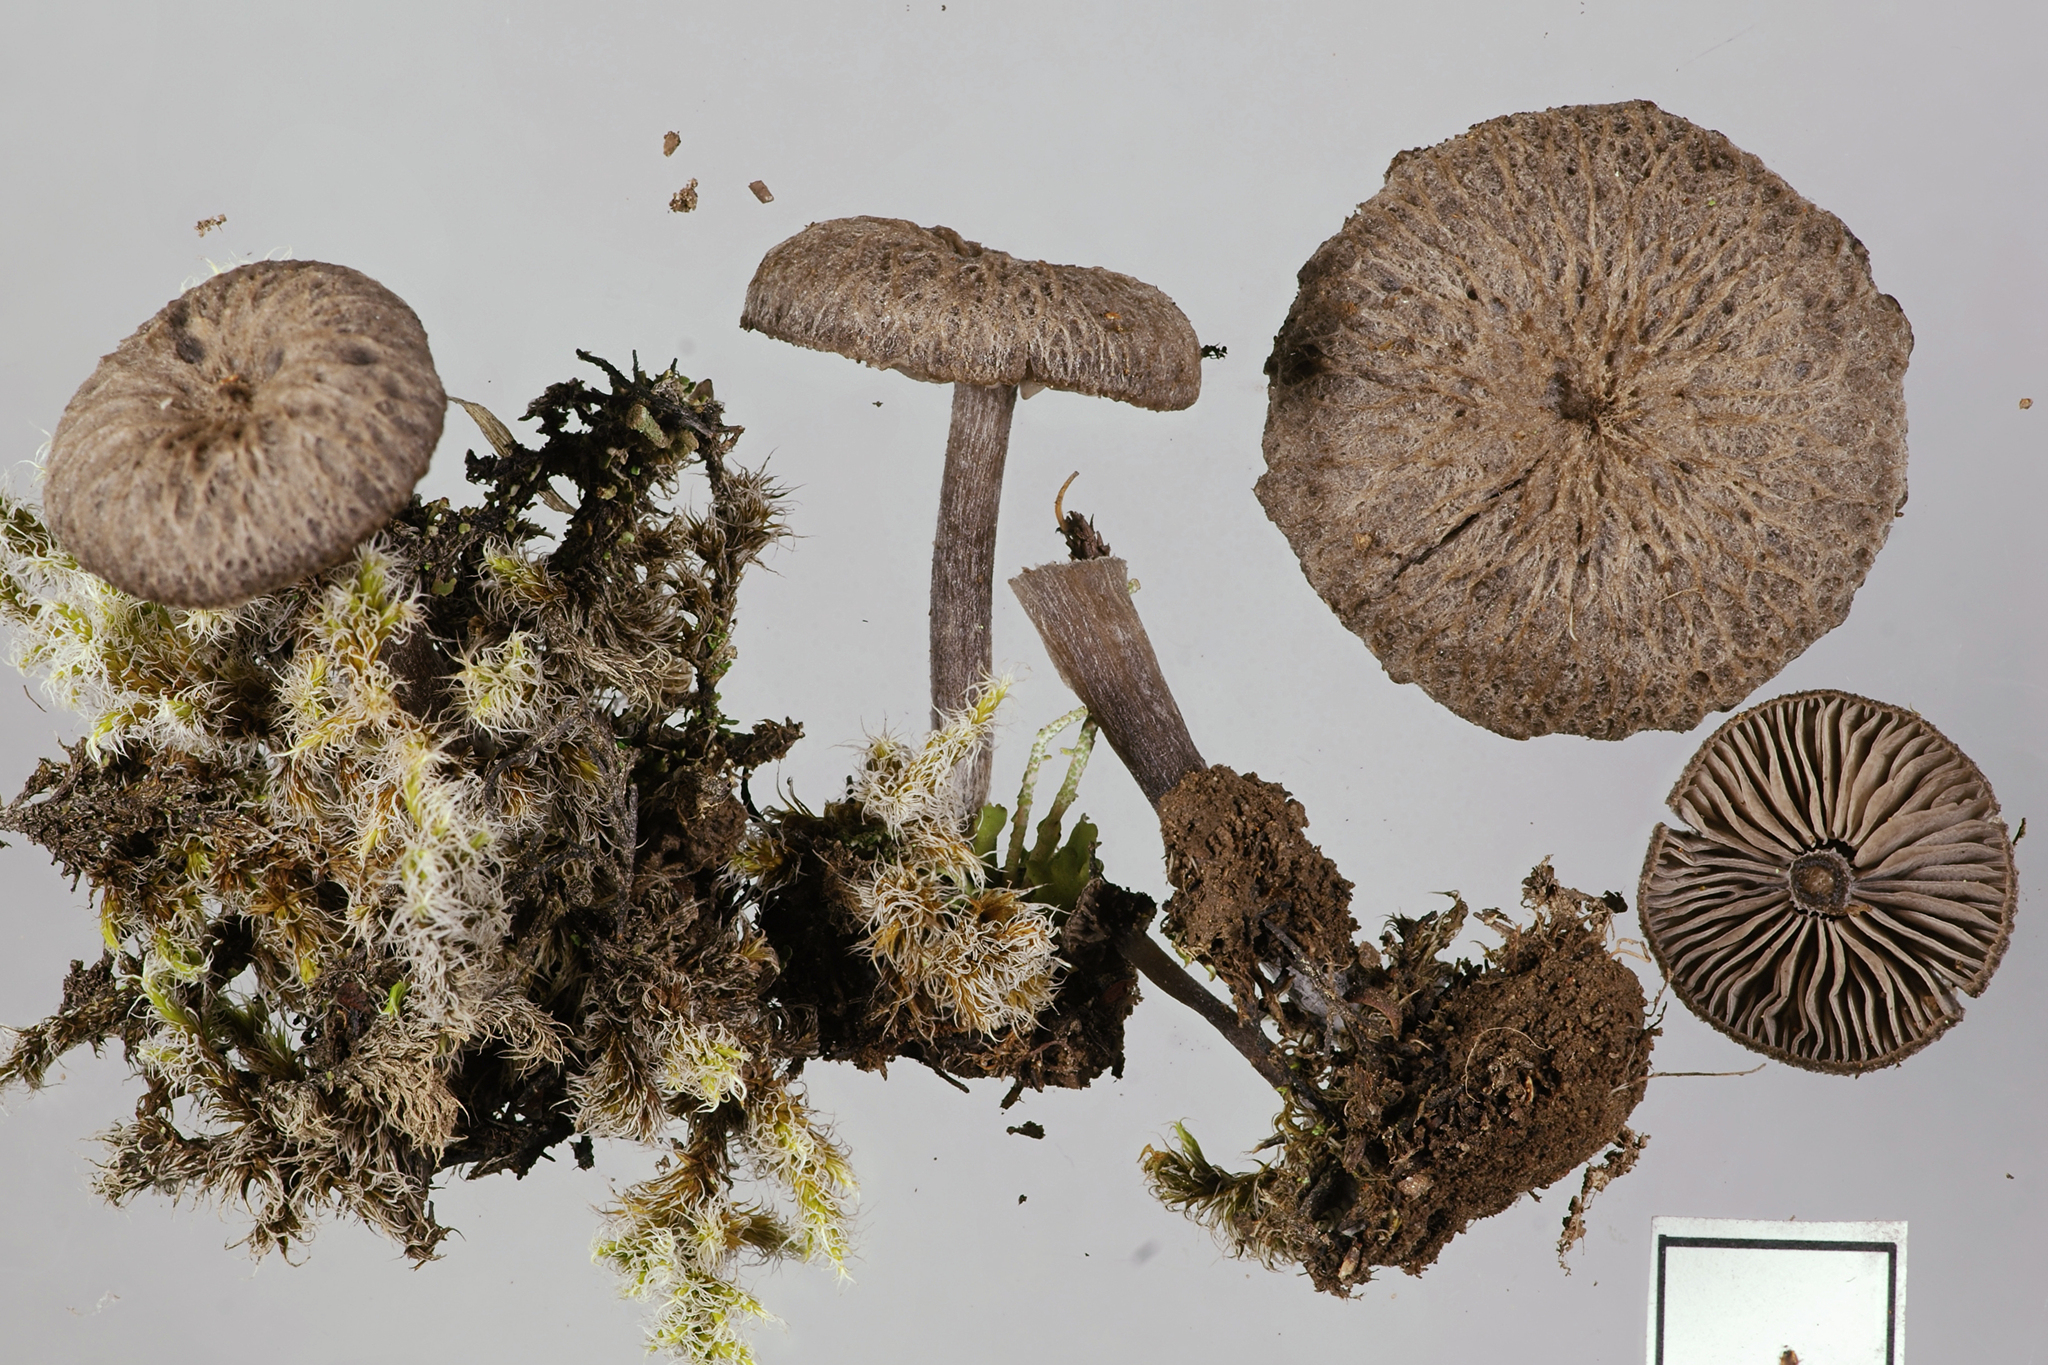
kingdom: Fungi
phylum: Basidiomycota
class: Agaricomycetes
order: Agaricales
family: Entolomataceae
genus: Entoloma
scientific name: Entoloma crinitum
